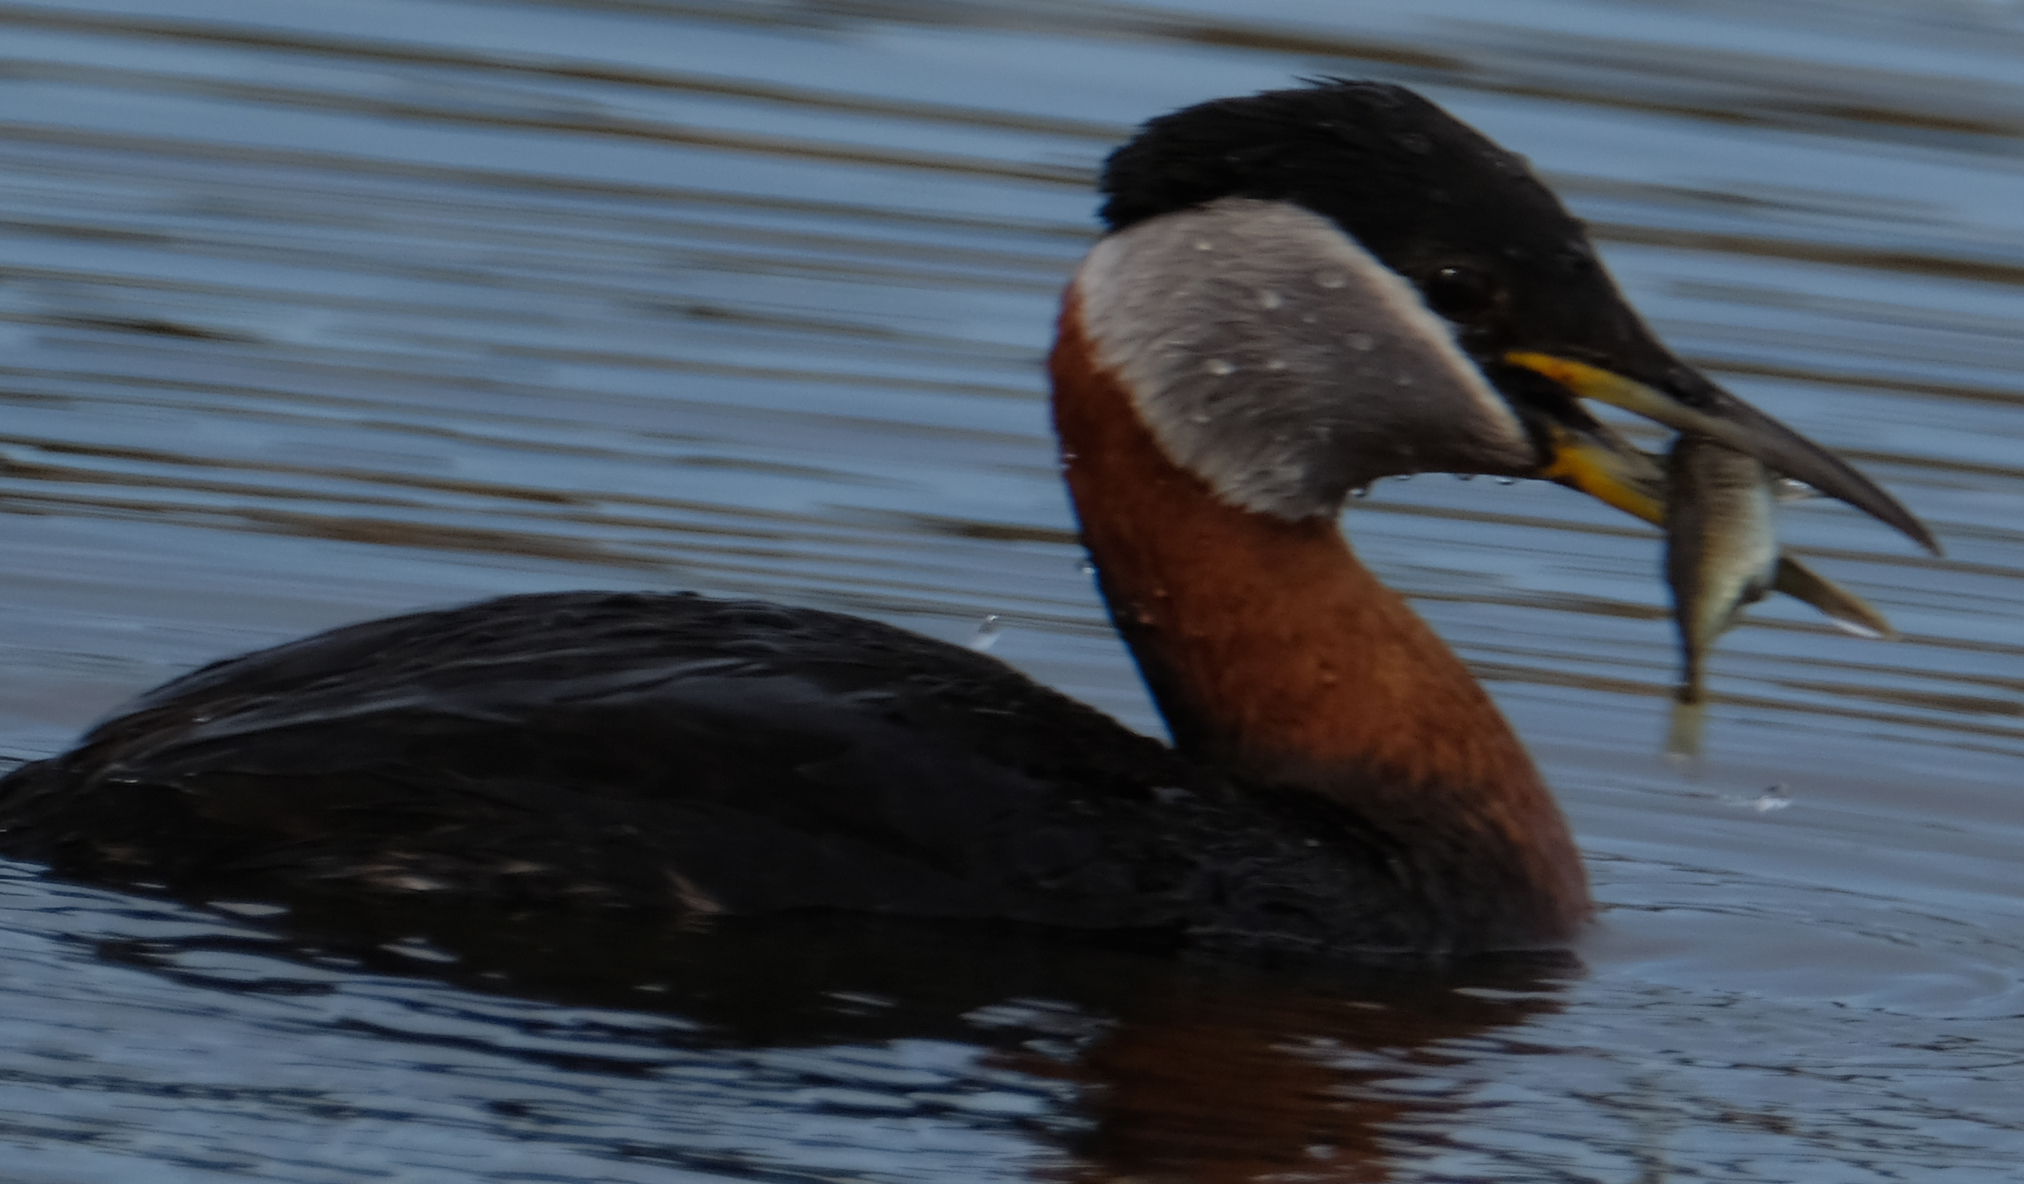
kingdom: Animalia
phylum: Chordata
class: Aves
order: Podicipediformes
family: Podicipedidae
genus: Podiceps
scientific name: Podiceps grisegena
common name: Red-necked grebe
